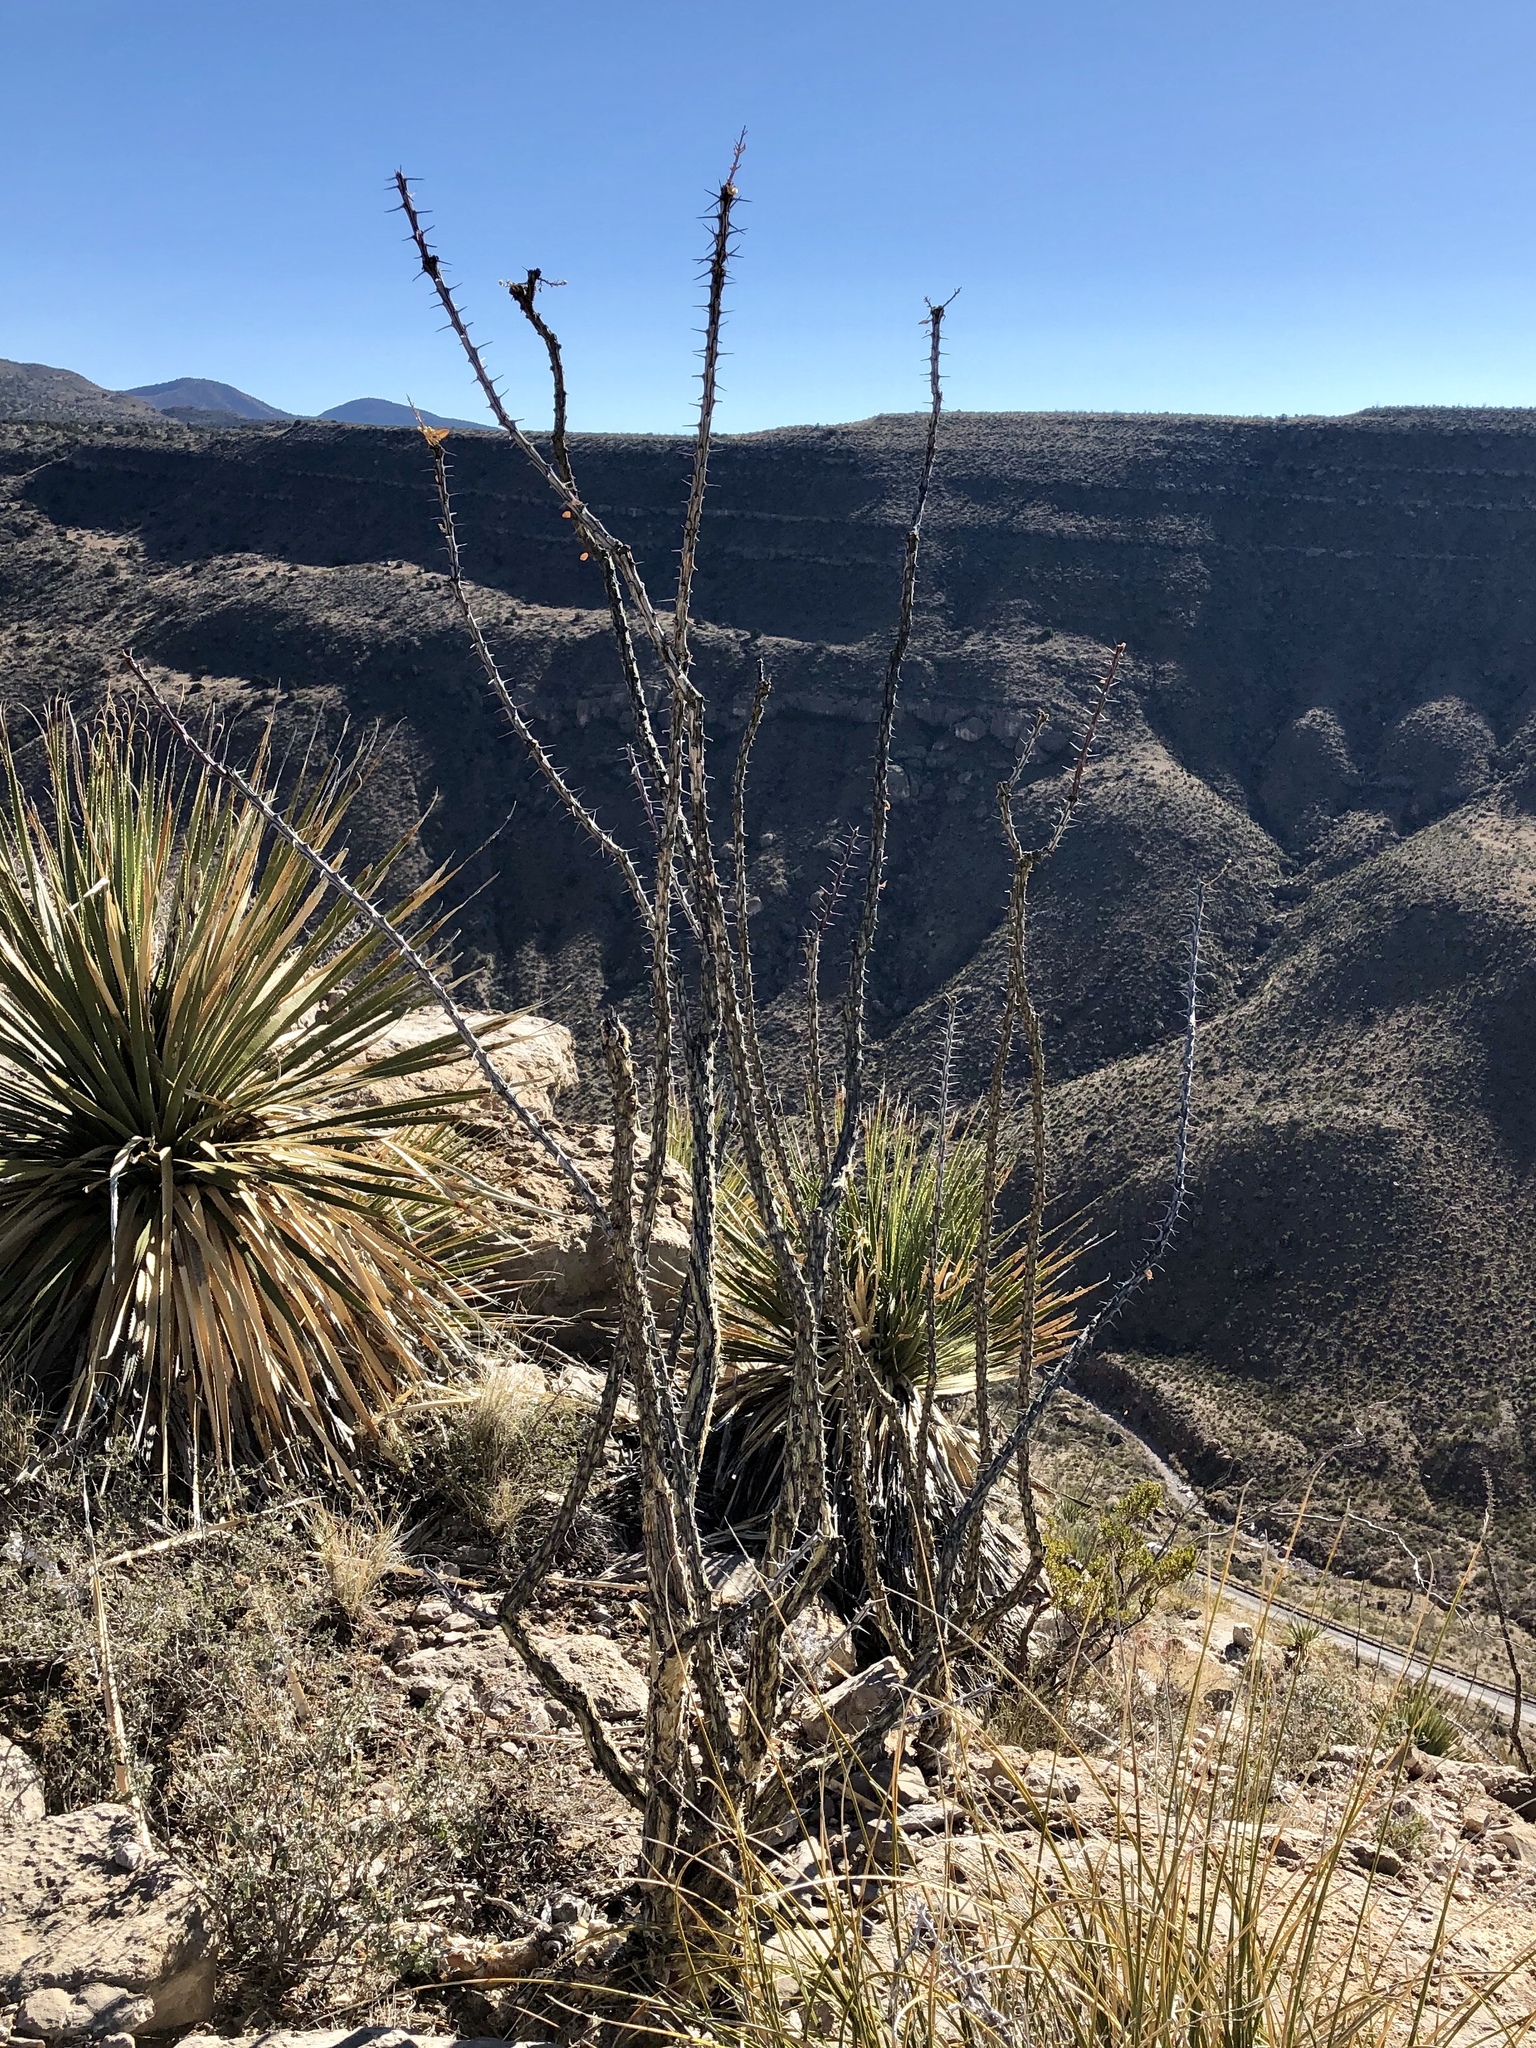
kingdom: Plantae
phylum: Tracheophyta
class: Magnoliopsida
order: Ericales
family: Fouquieriaceae
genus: Fouquieria
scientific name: Fouquieria splendens
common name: Vine-cactus
